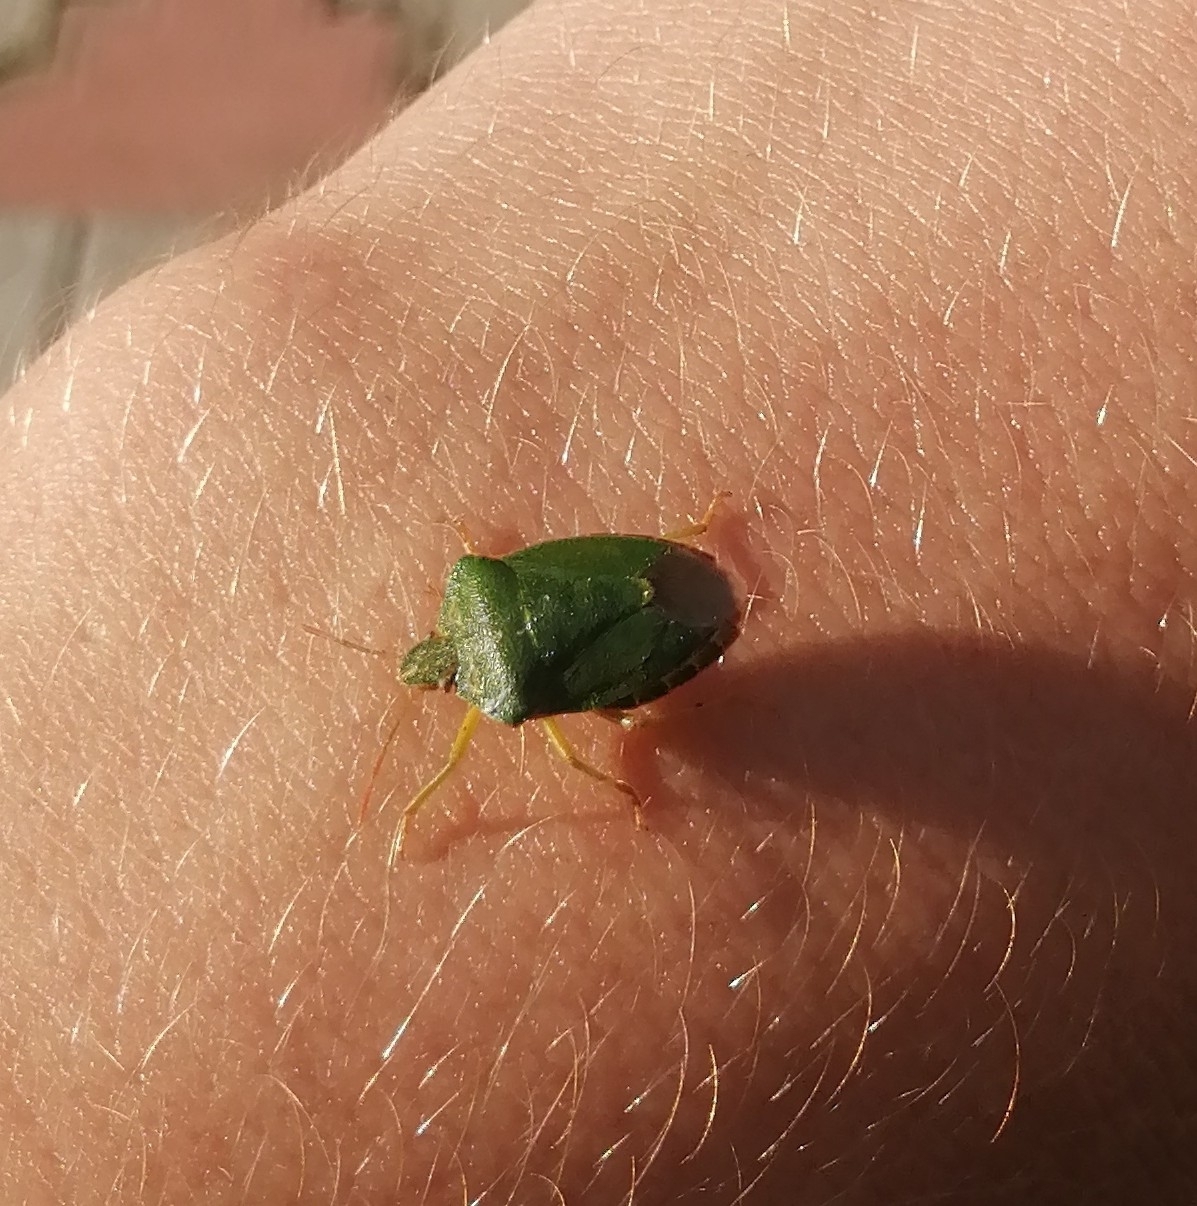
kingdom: Animalia
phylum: Arthropoda
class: Insecta
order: Hemiptera
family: Pentatomidae
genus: Palomena
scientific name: Palomena prasina
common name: Green shieldbug
